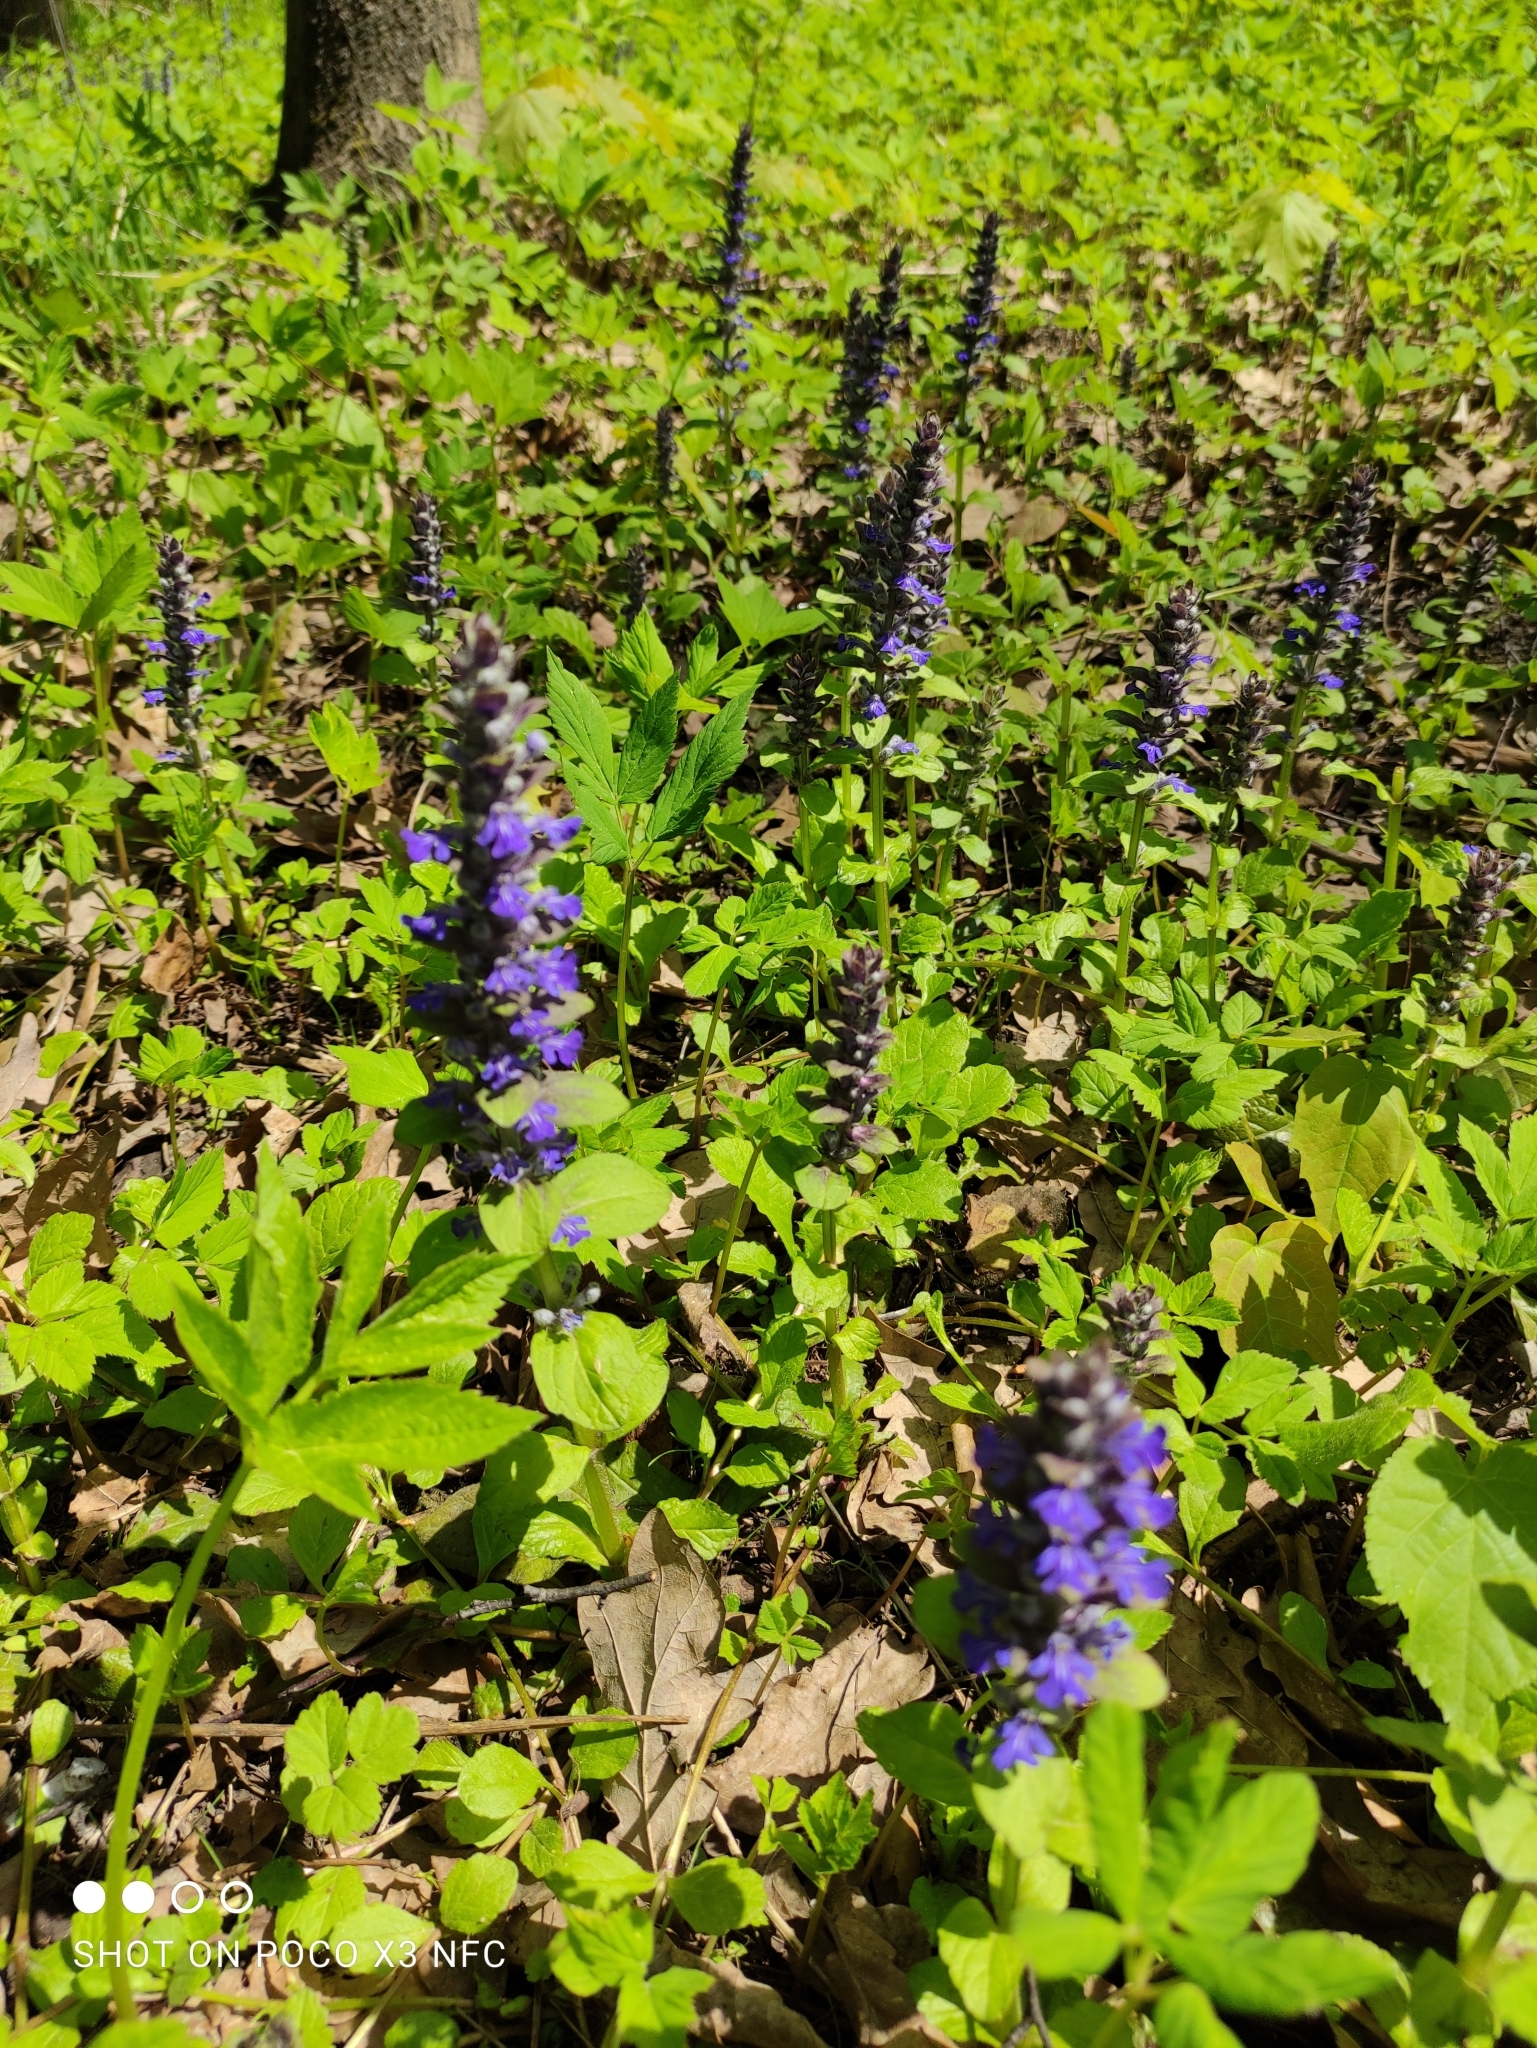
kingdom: Plantae
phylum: Tracheophyta
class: Magnoliopsida
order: Lamiales
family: Lamiaceae
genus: Ajuga
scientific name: Ajuga reptans
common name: Bugle
